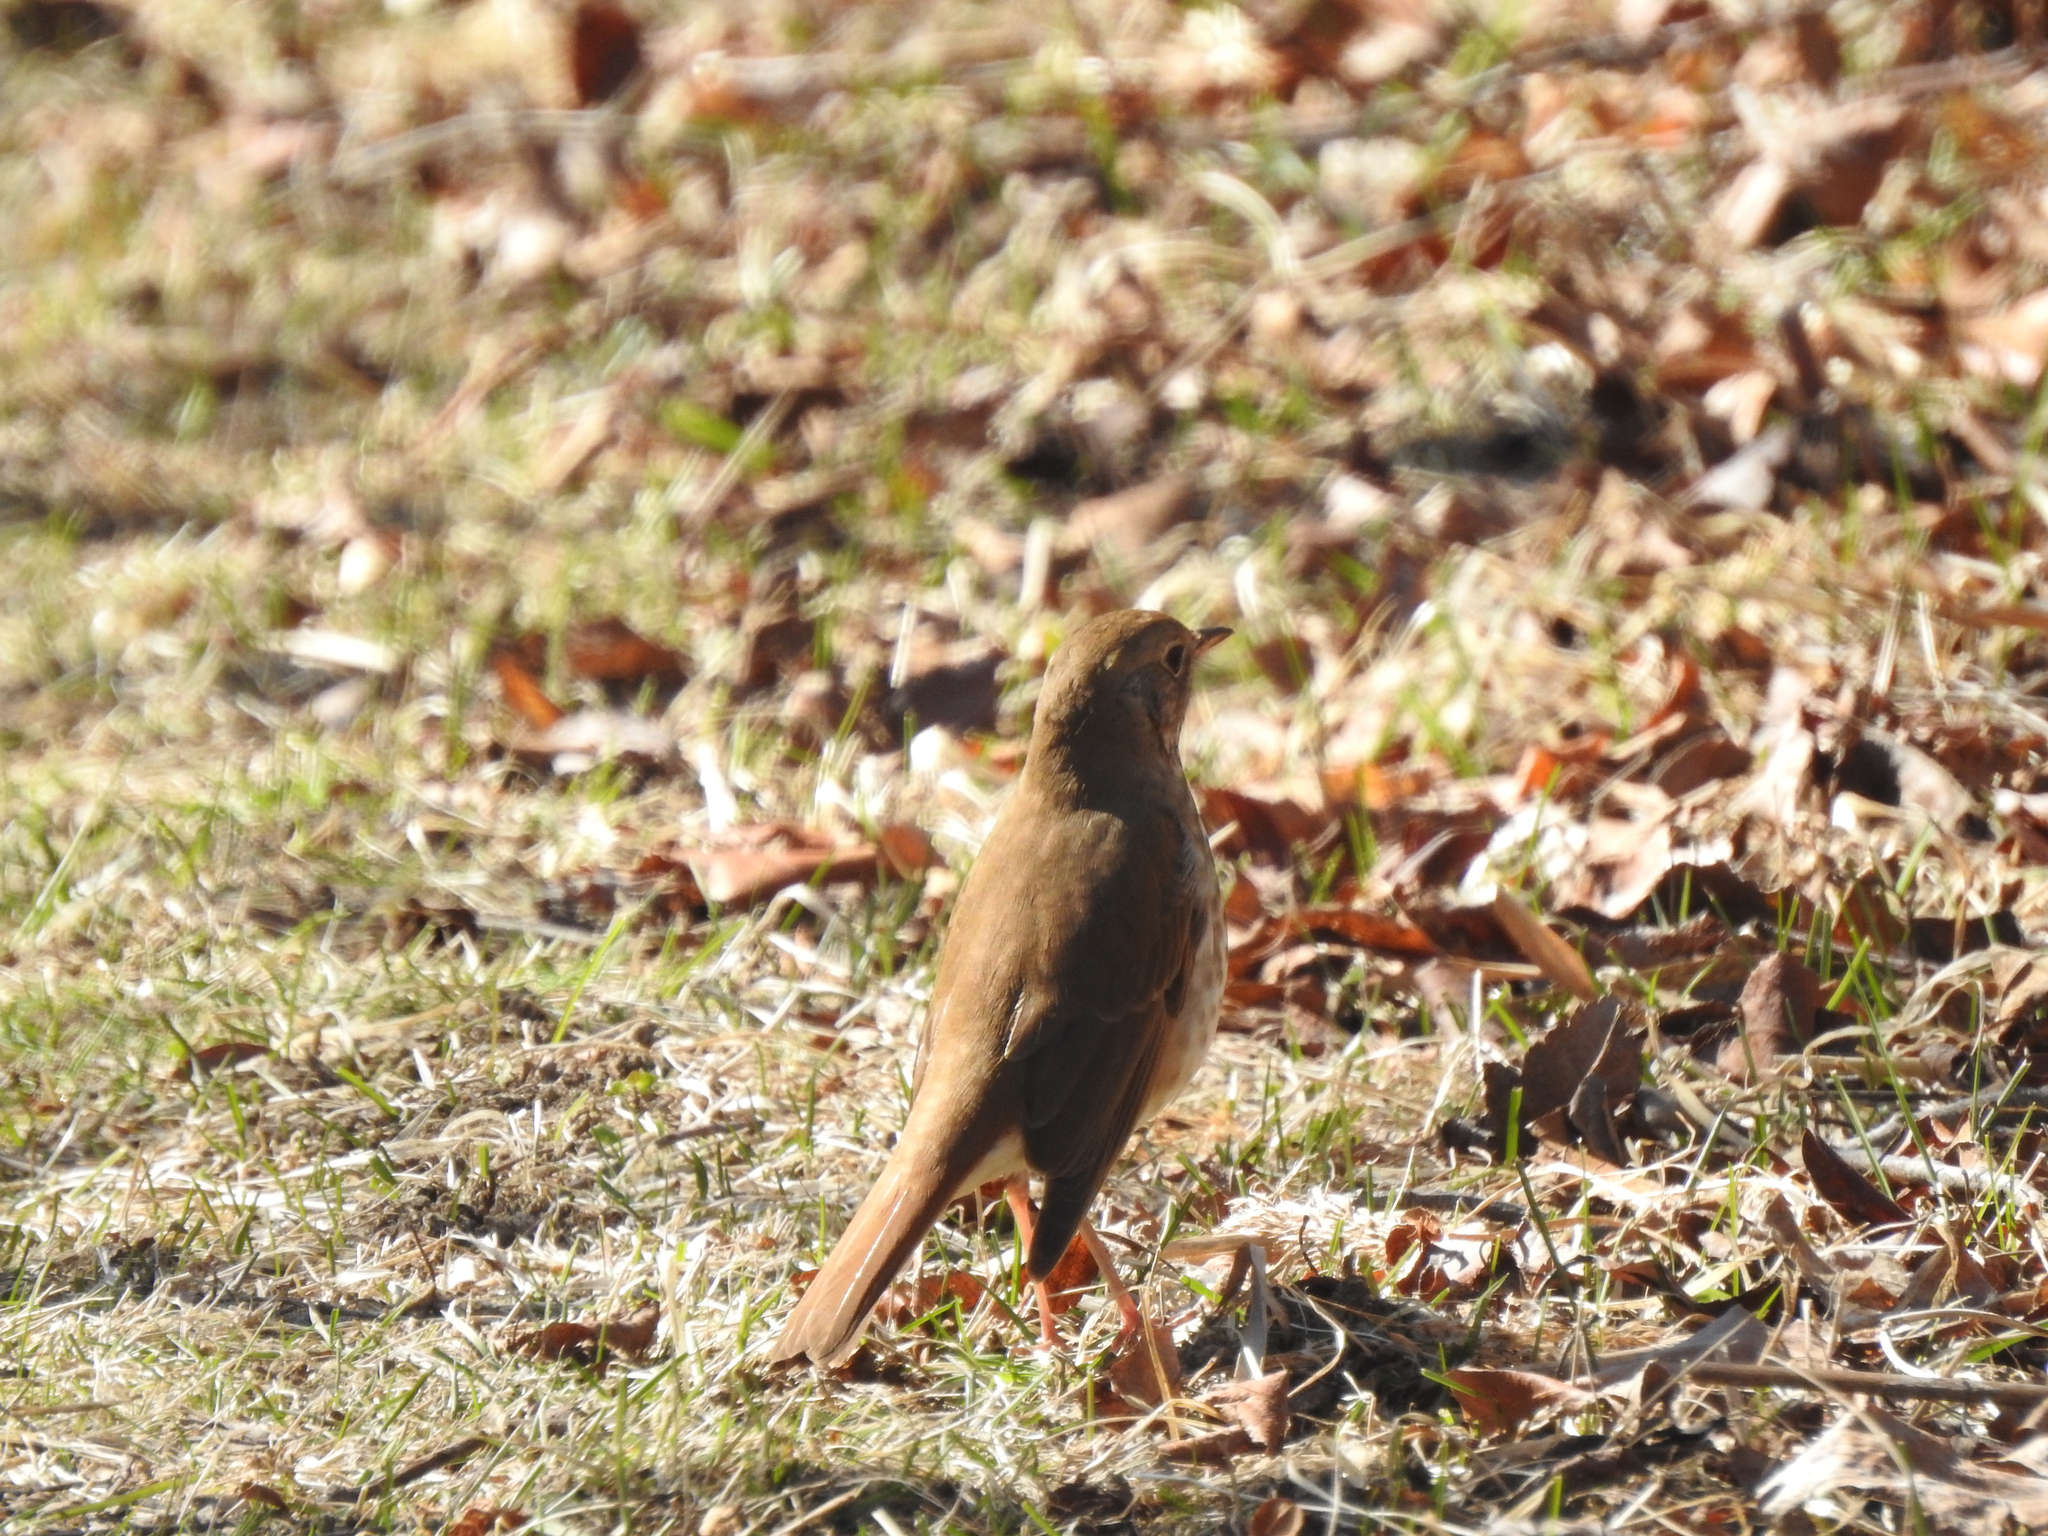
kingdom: Animalia
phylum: Chordata
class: Aves
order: Passeriformes
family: Turdidae
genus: Catharus
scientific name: Catharus guttatus
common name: Hermit thrush
